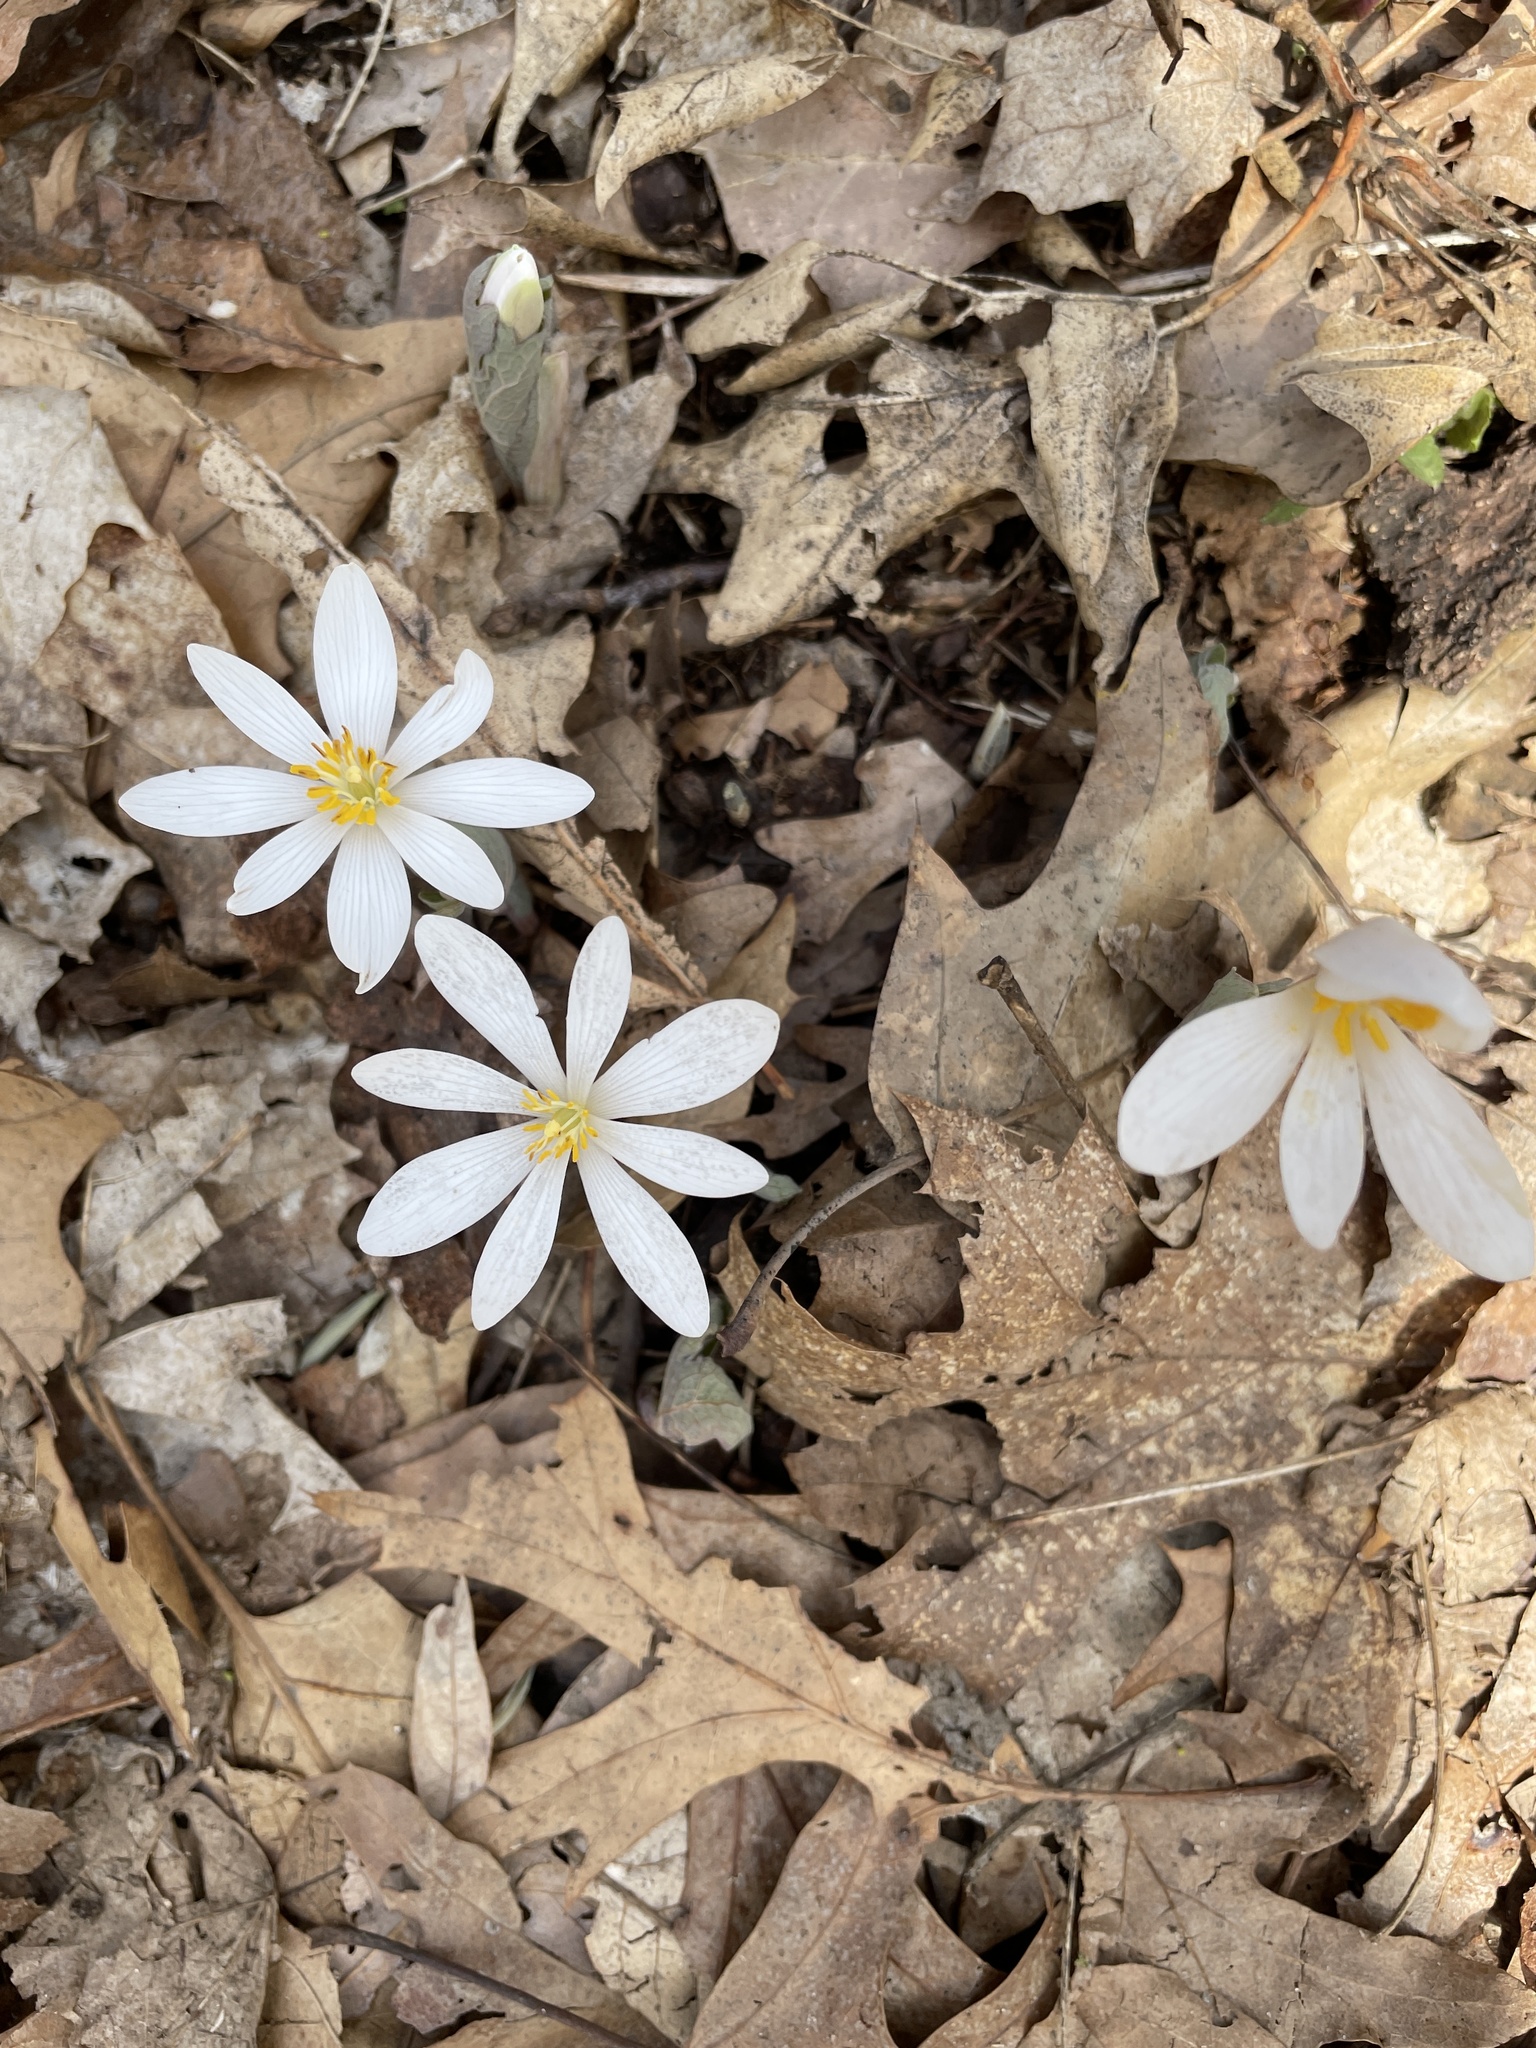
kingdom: Plantae
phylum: Tracheophyta
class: Magnoliopsida
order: Ranunculales
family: Papaveraceae
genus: Sanguinaria
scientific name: Sanguinaria canadensis
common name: Bloodroot
